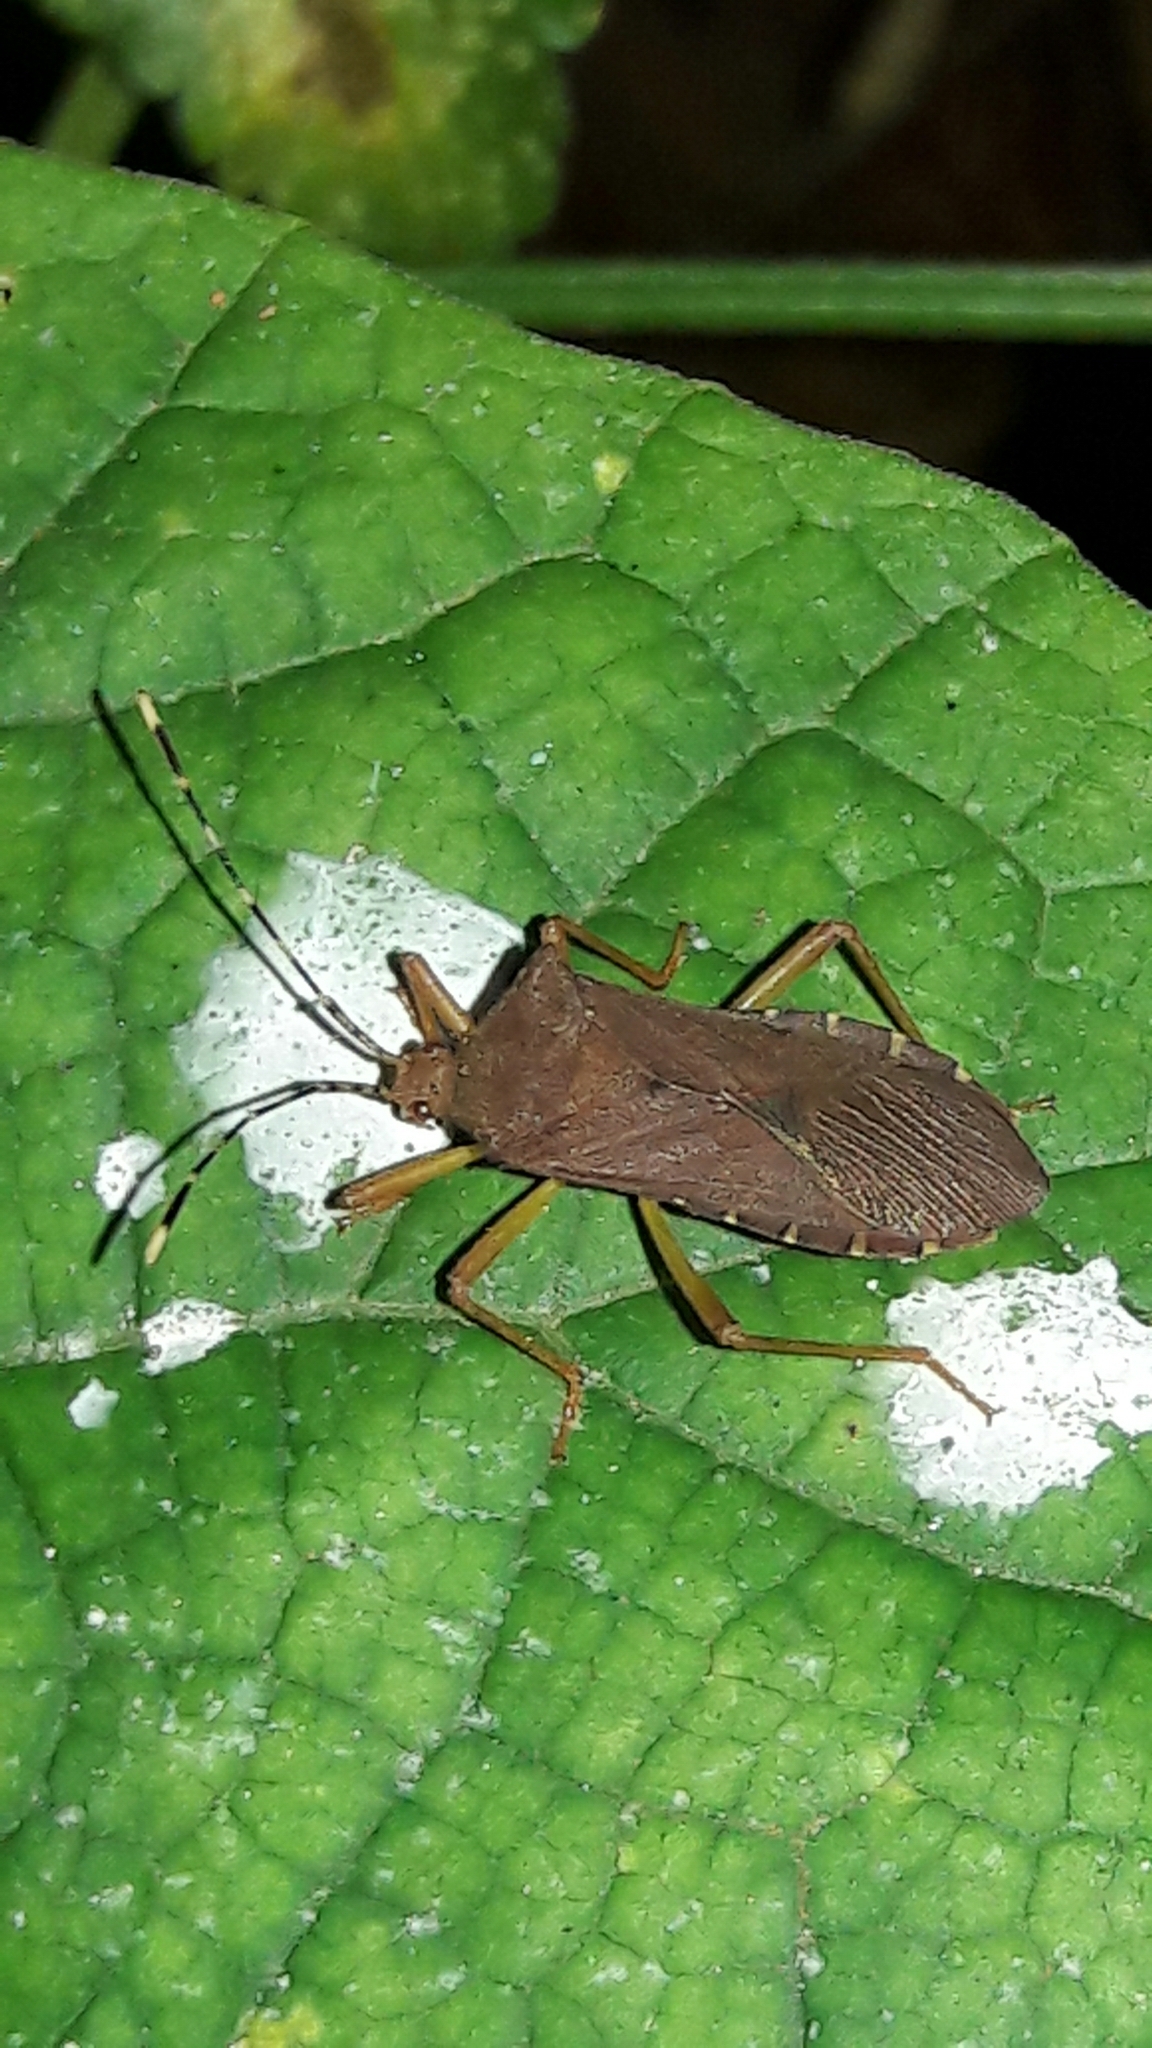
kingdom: Animalia
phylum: Arthropoda
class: Insecta
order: Hemiptera
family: Coreidae
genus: Anasa
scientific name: Anasa bellator
